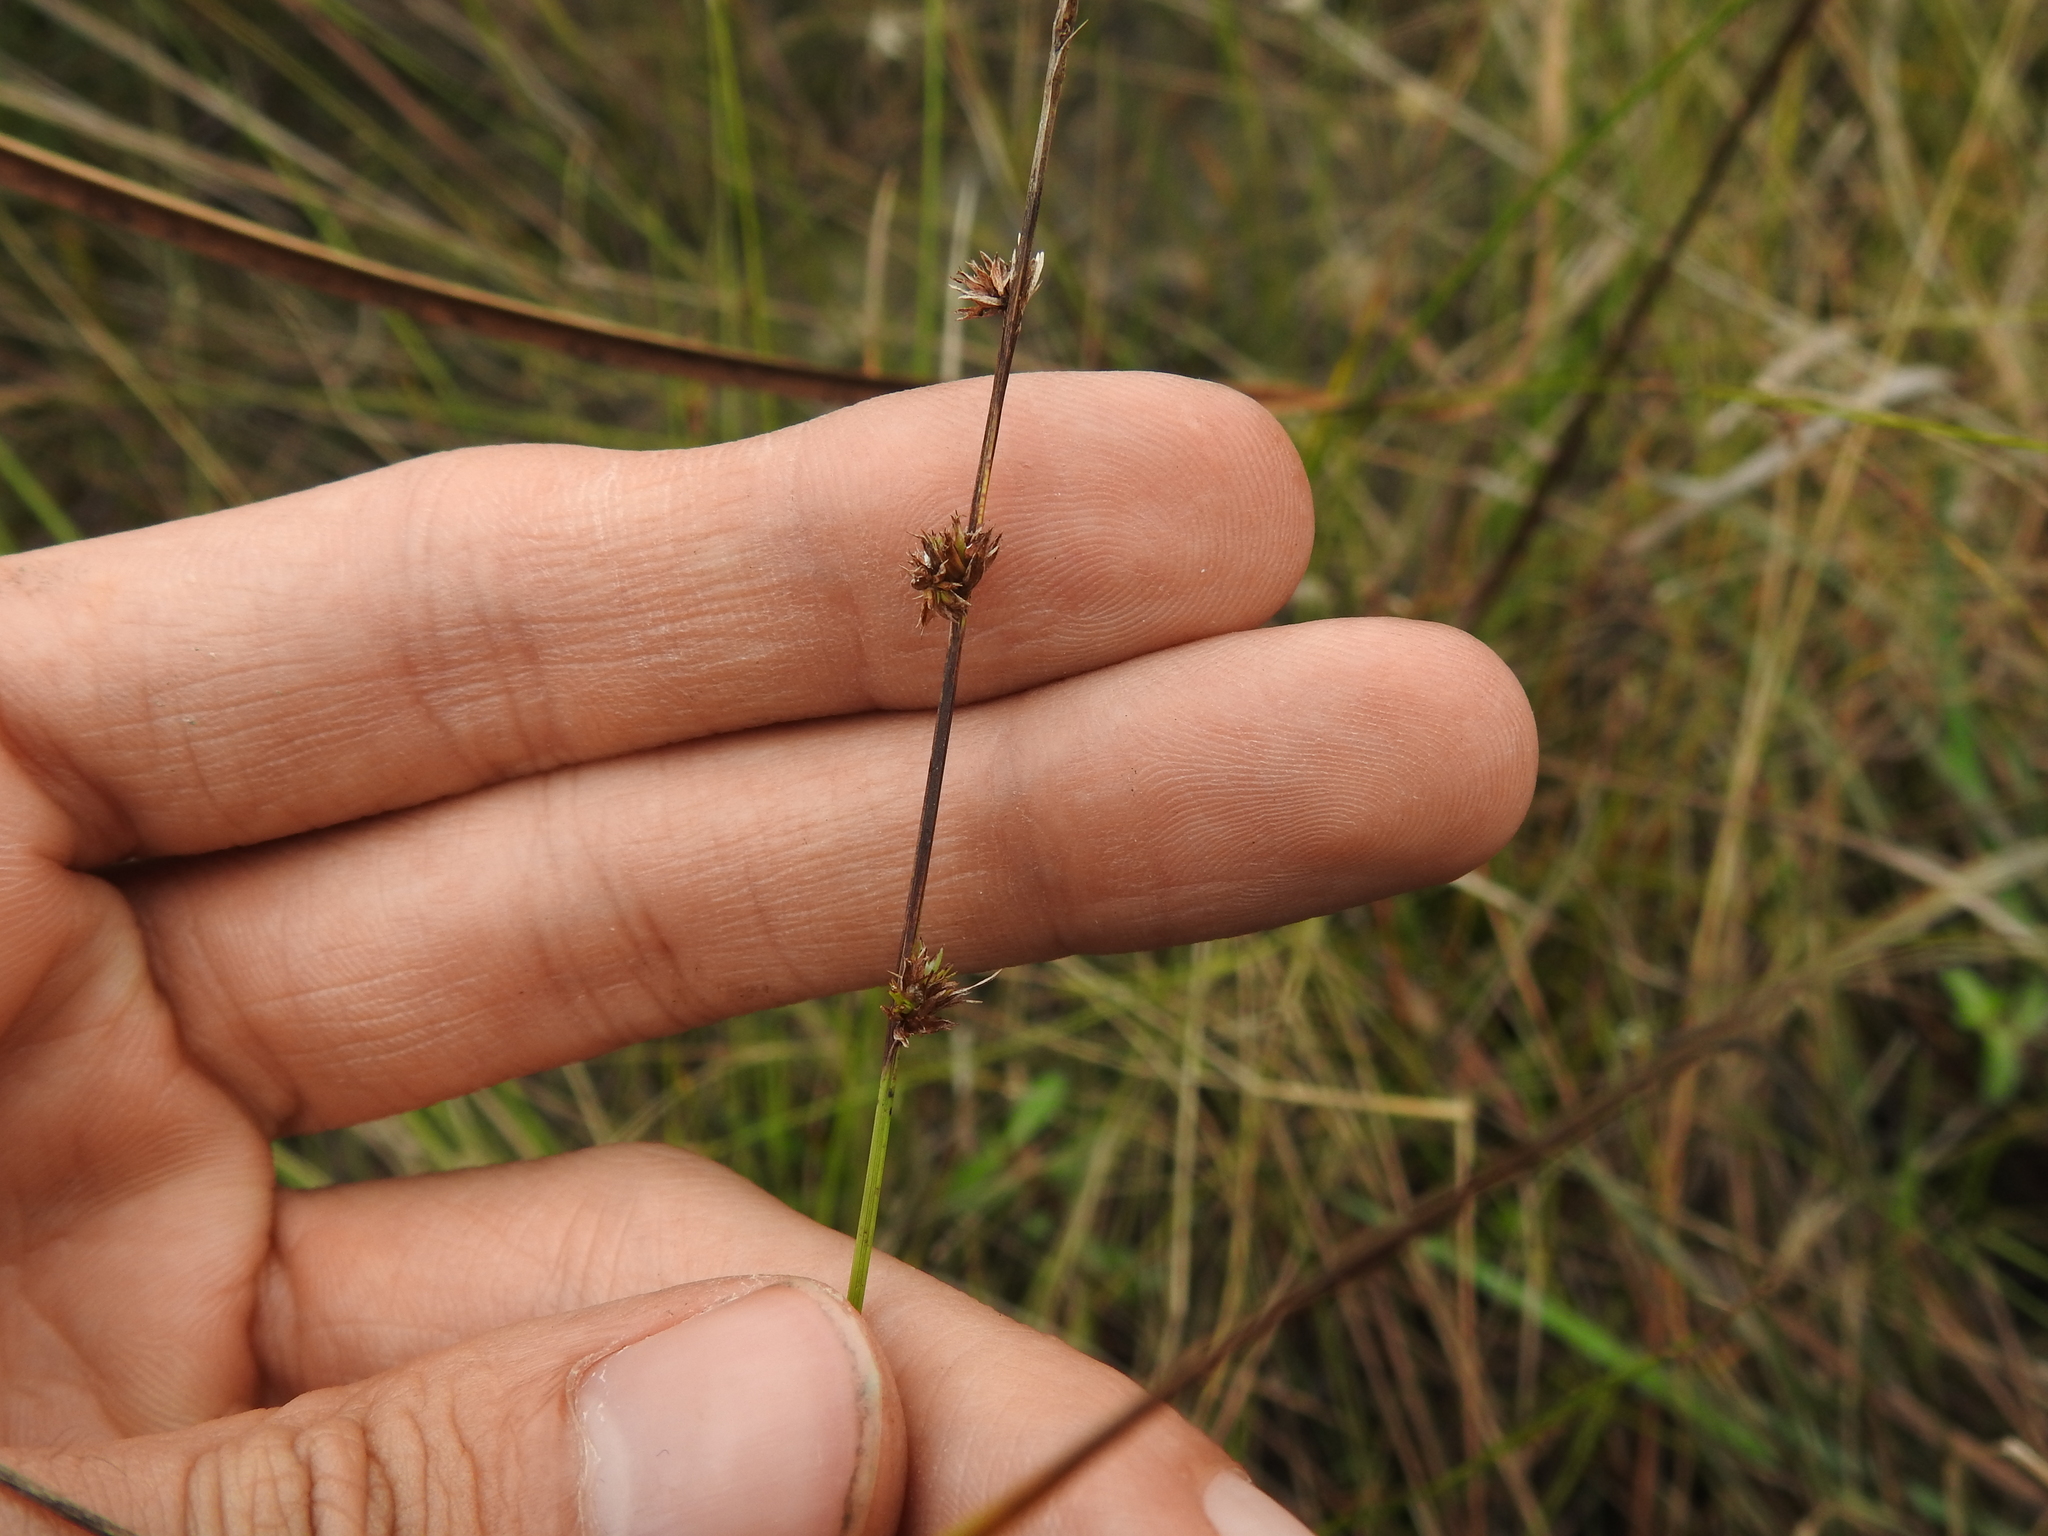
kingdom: Plantae
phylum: Tracheophyta
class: Liliopsida
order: Poales
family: Cyperaceae
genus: Scleria
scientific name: Scleria verticillata
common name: Low nutrush
